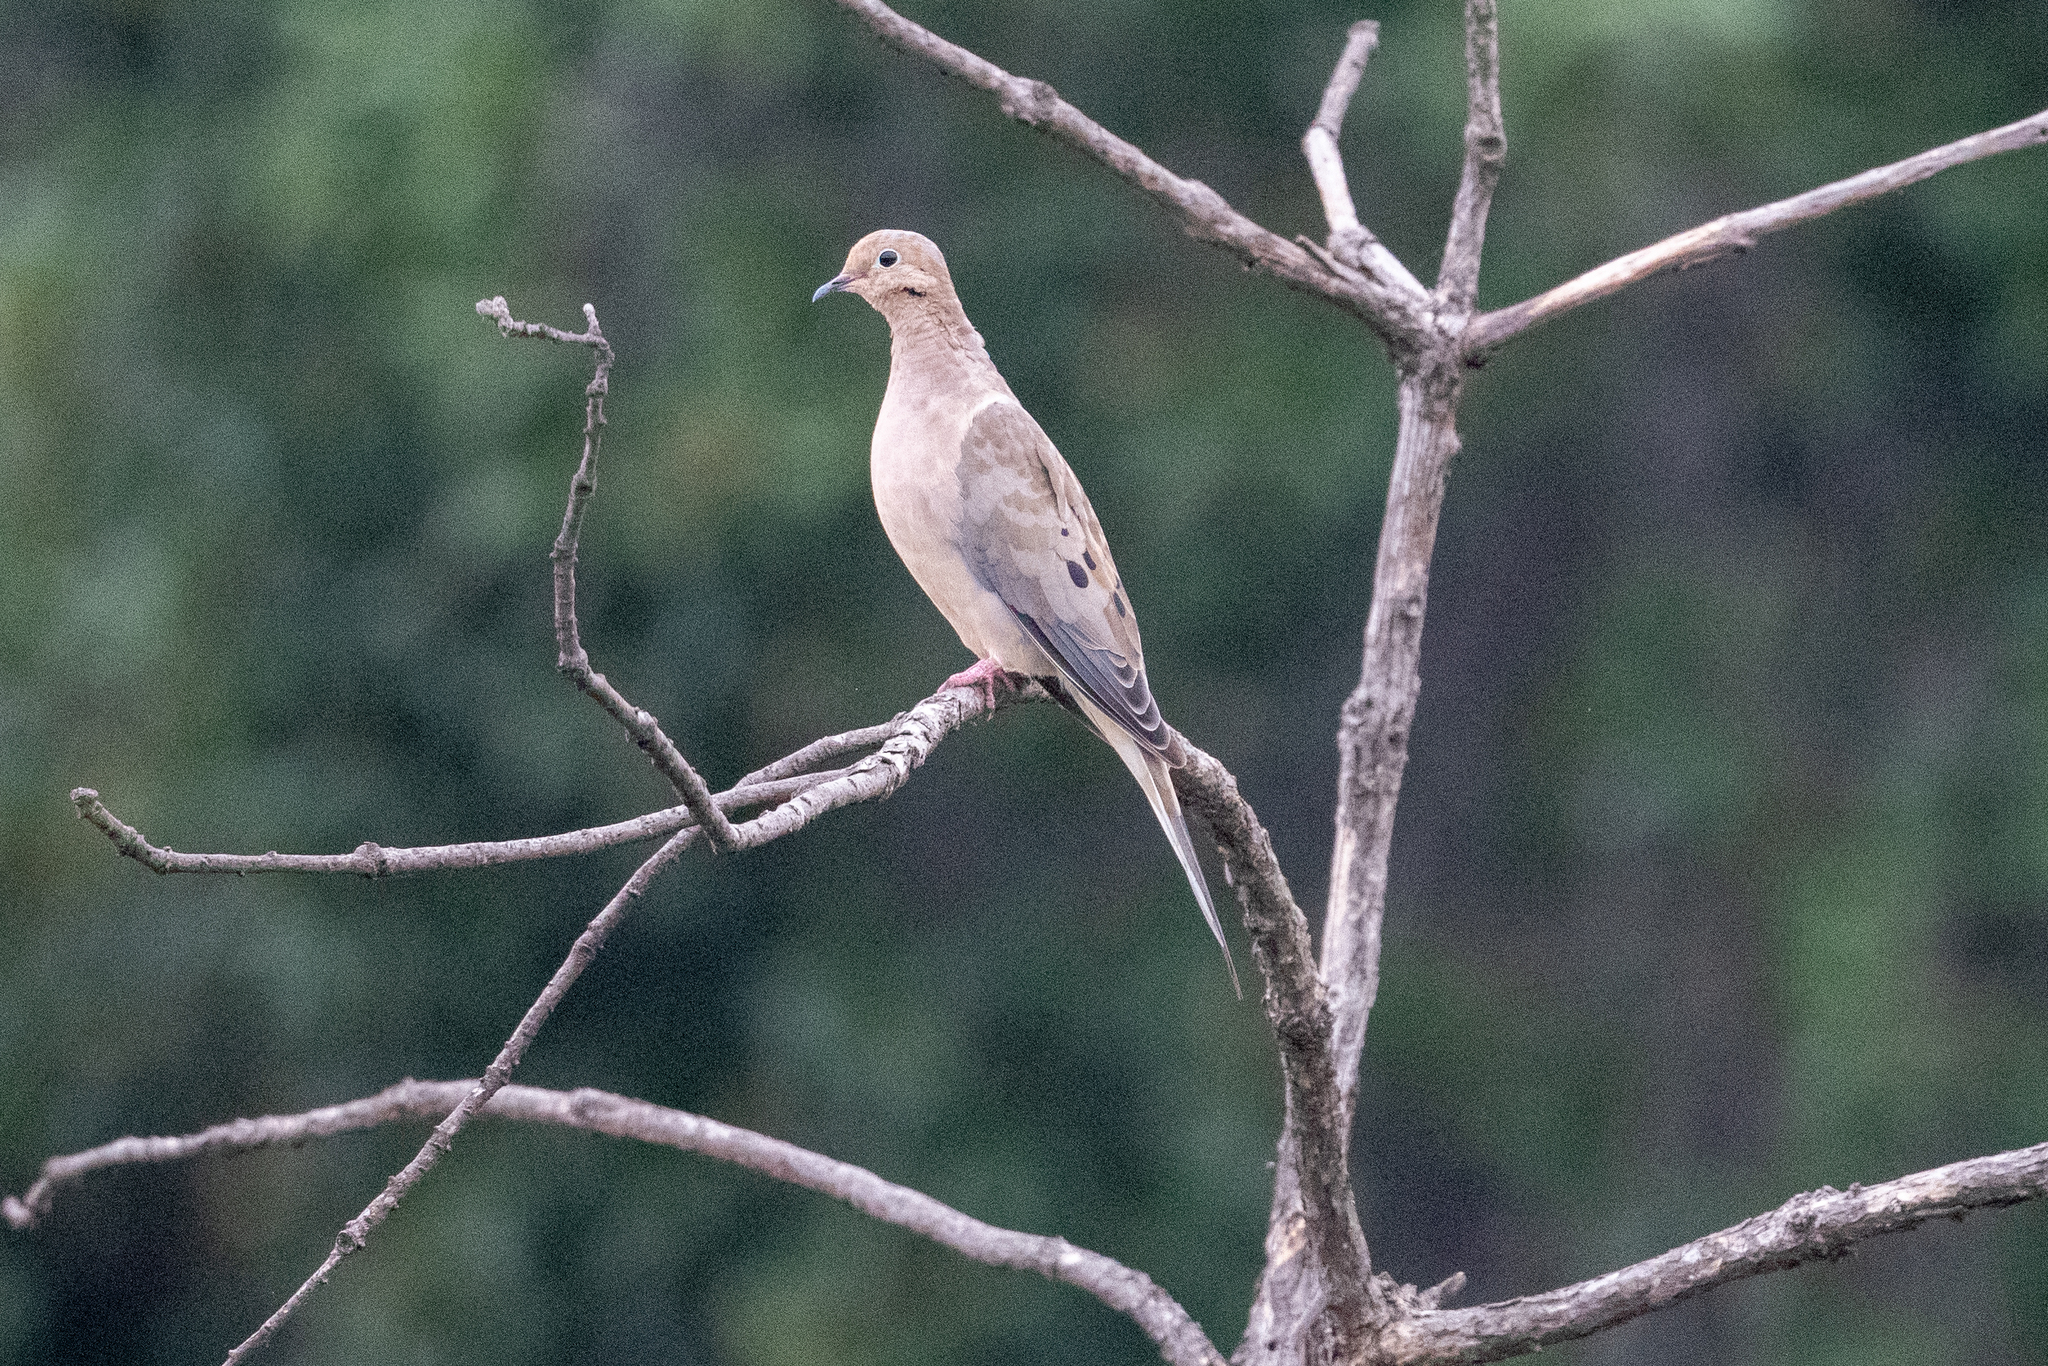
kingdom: Animalia
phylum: Chordata
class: Aves
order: Columbiformes
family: Columbidae
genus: Zenaida
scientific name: Zenaida macroura
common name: Mourning dove
